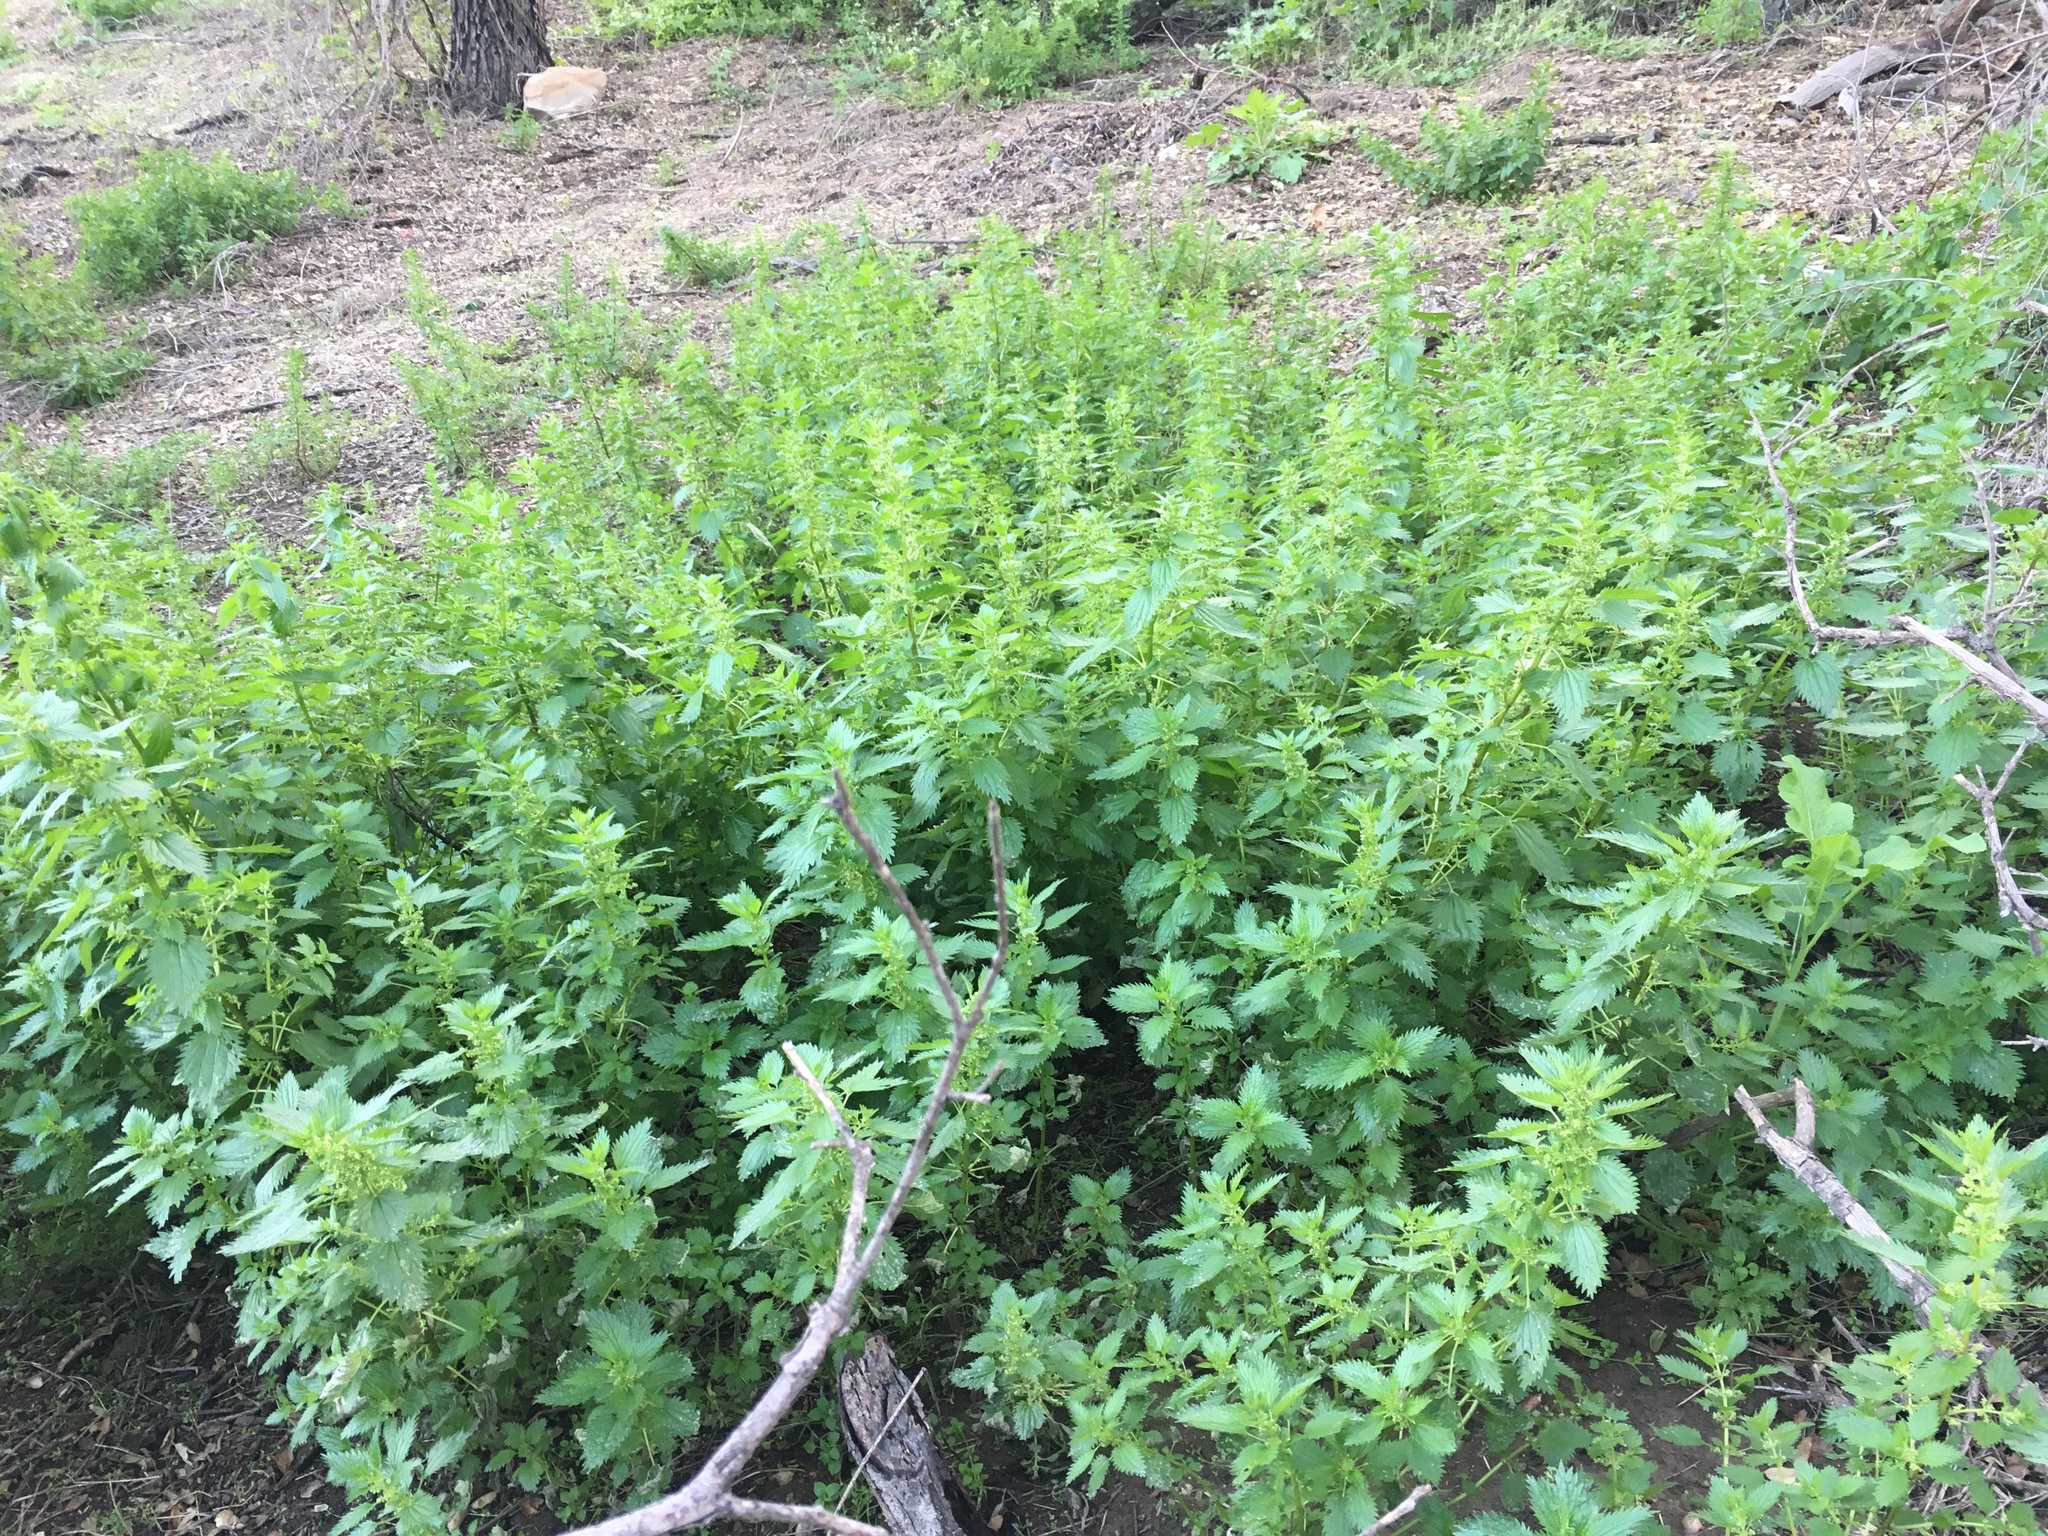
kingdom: Plantae
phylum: Tracheophyta
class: Magnoliopsida
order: Rosales
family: Urticaceae
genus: Urtica
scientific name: Urtica urens
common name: Dwarf nettle
